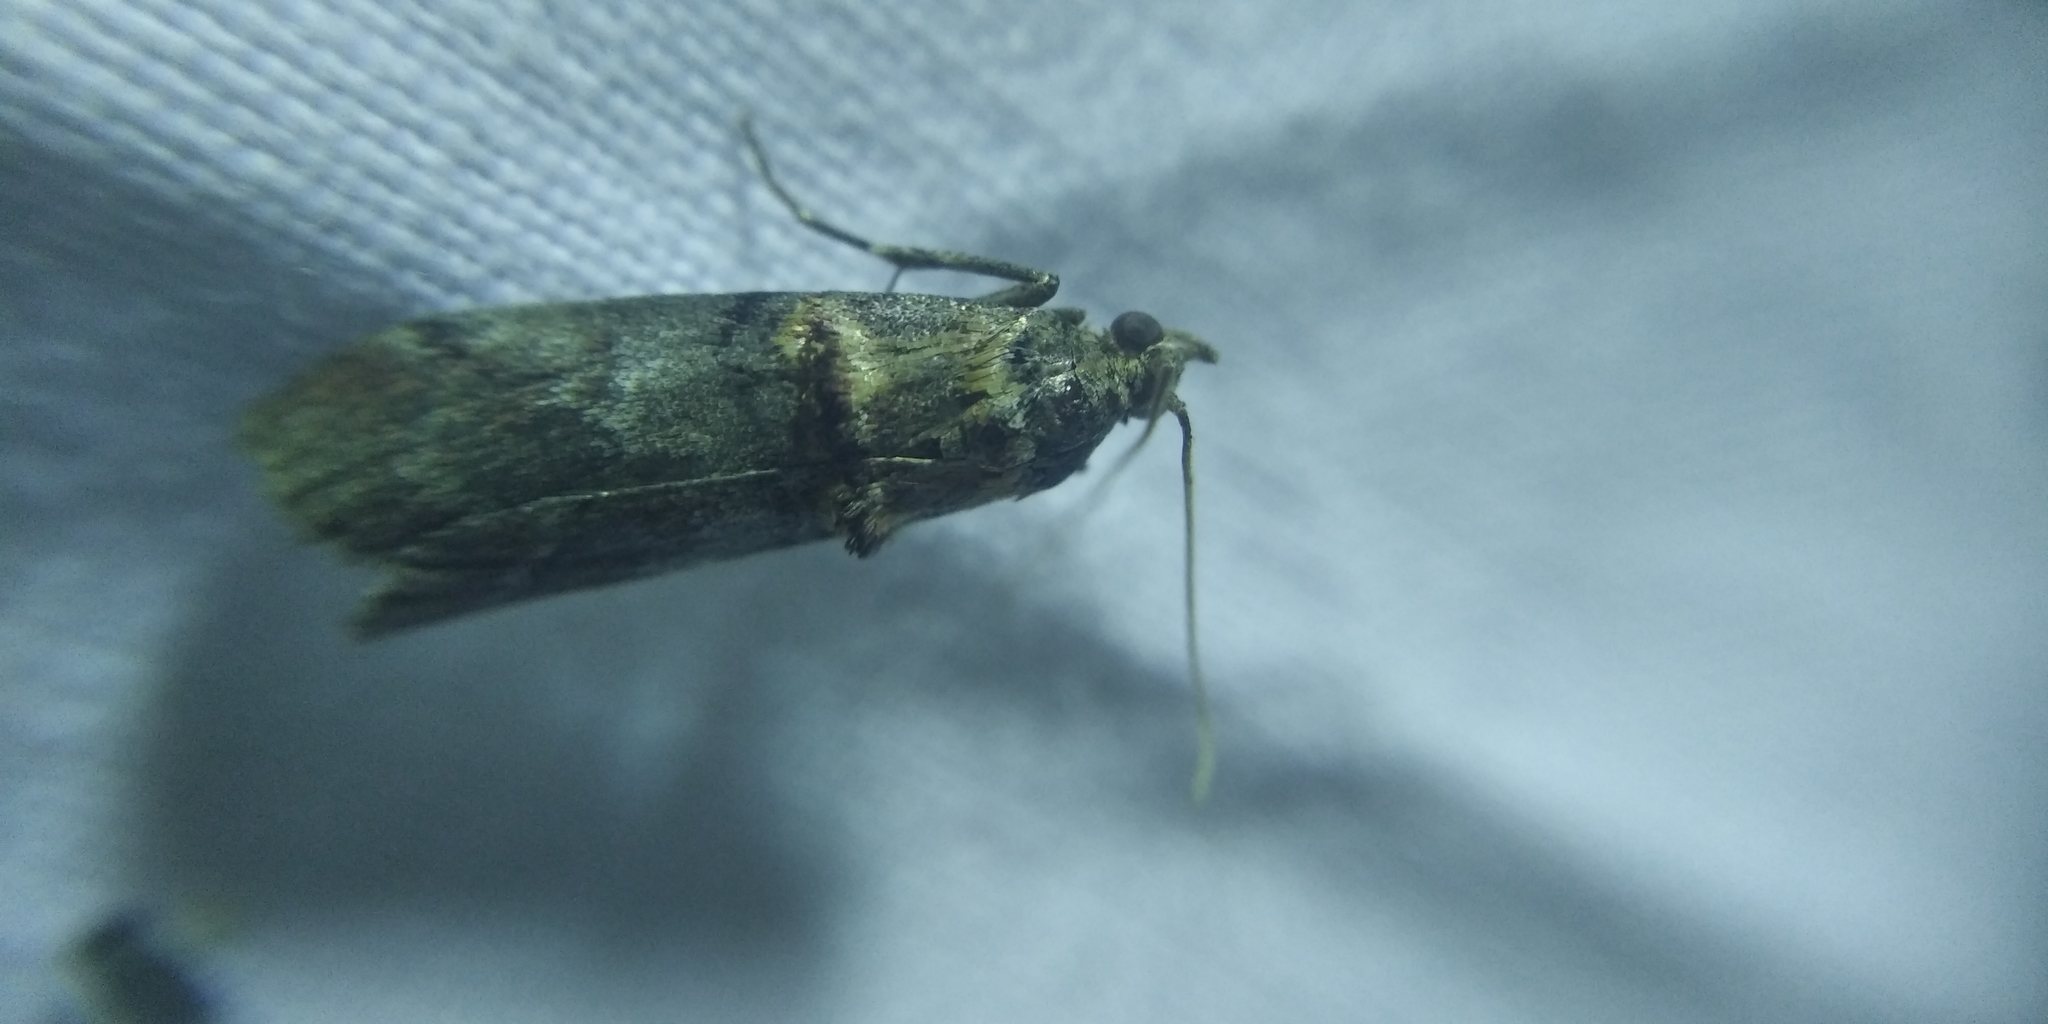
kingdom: Animalia
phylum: Arthropoda
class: Insecta
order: Lepidoptera
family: Pyralidae
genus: Trachonitis
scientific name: Trachonitis cristella
